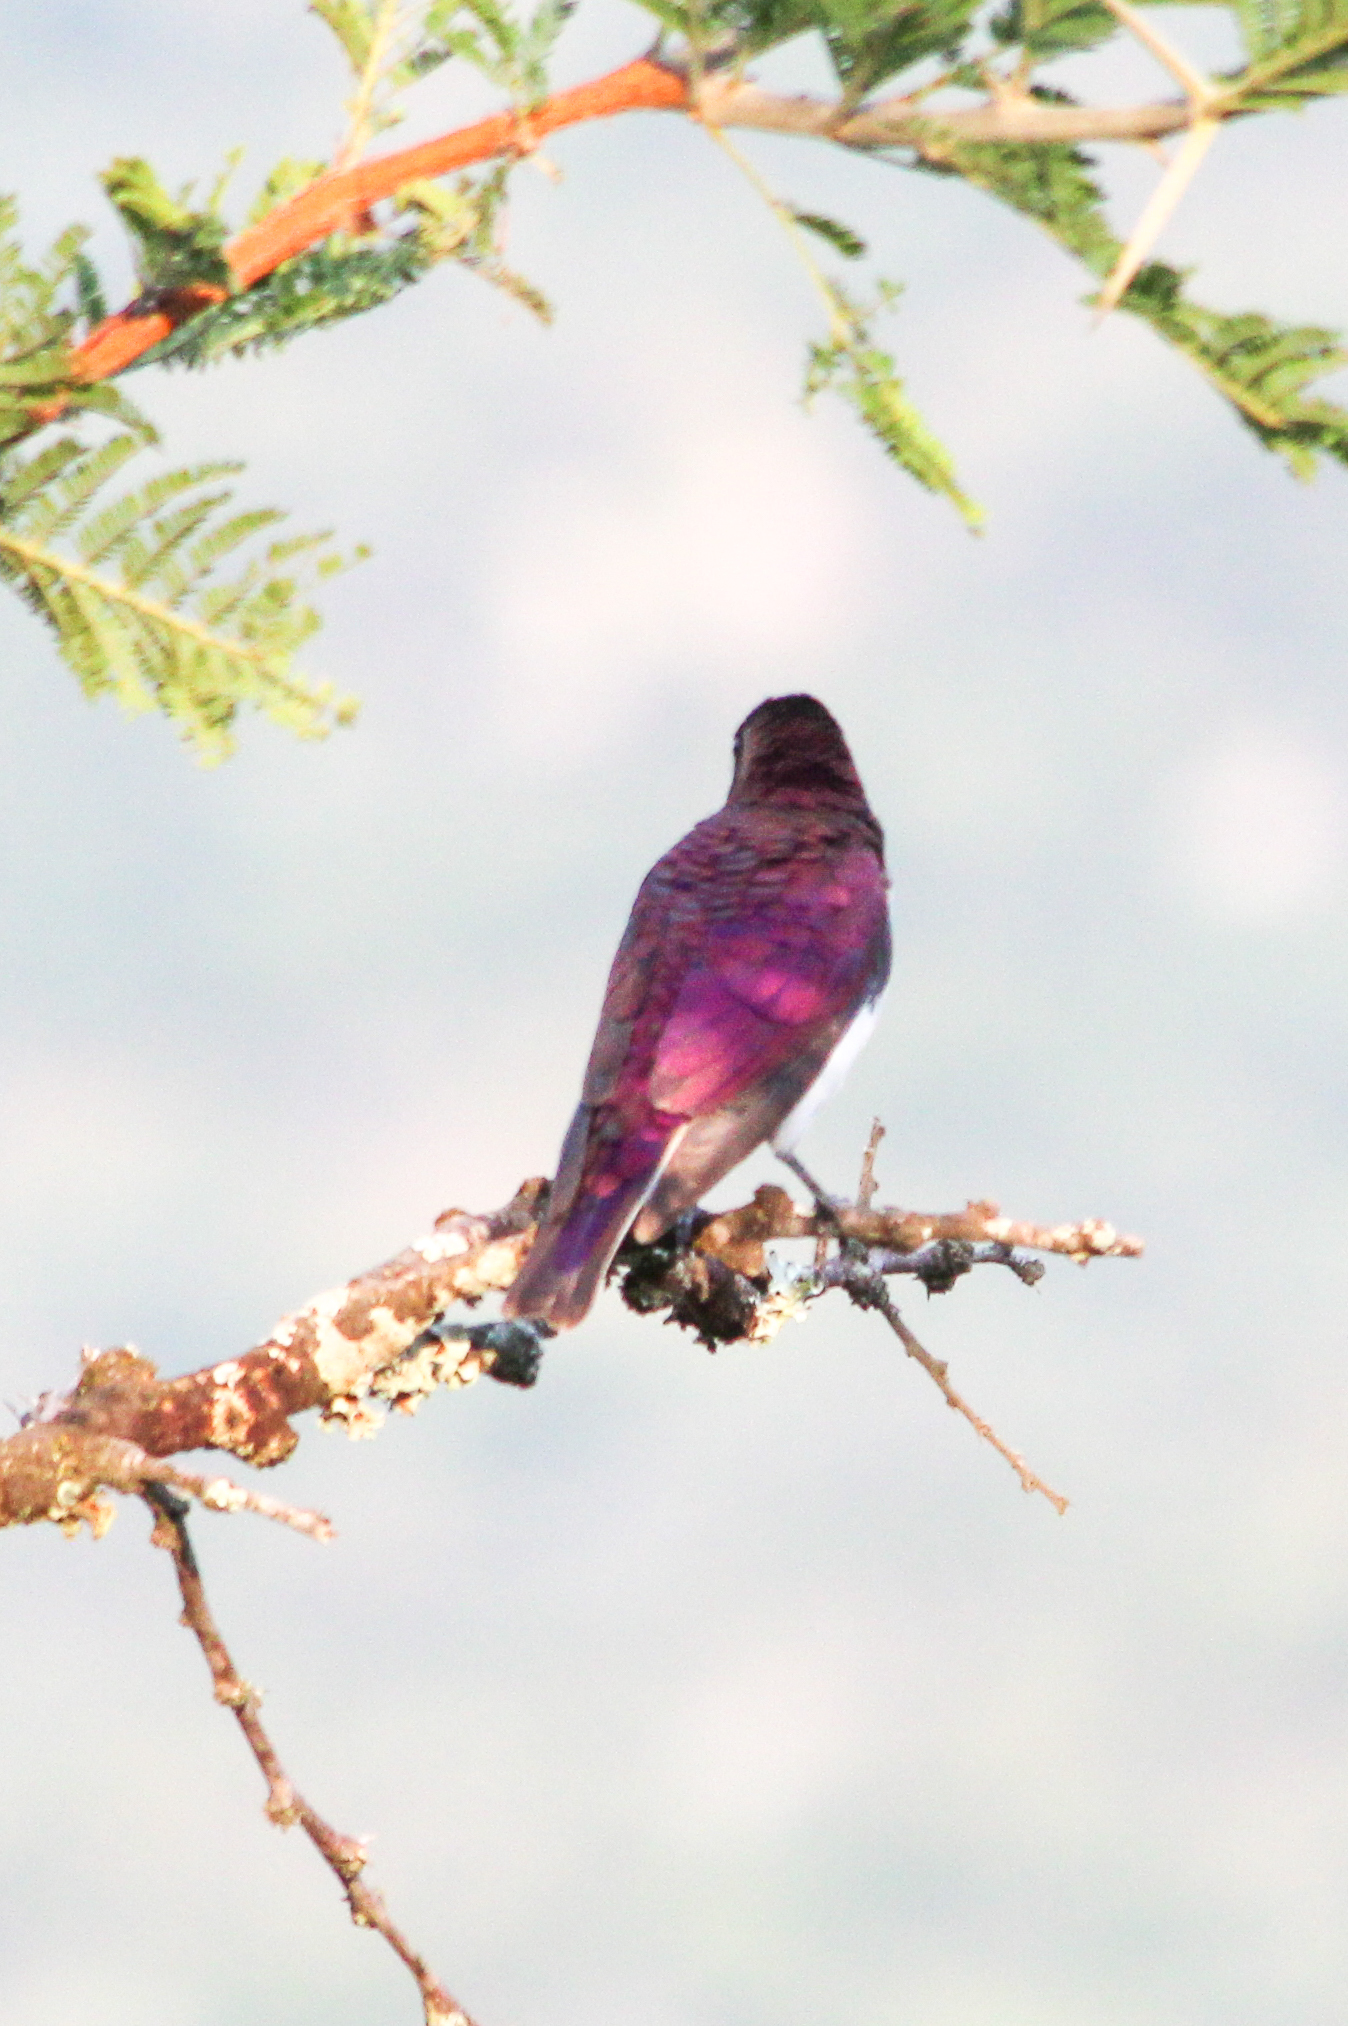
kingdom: Animalia
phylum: Chordata
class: Aves
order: Passeriformes
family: Sturnidae
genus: Cinnyricinclus
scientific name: Cinnyricinclus leucogaster
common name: Violet-backed starling
